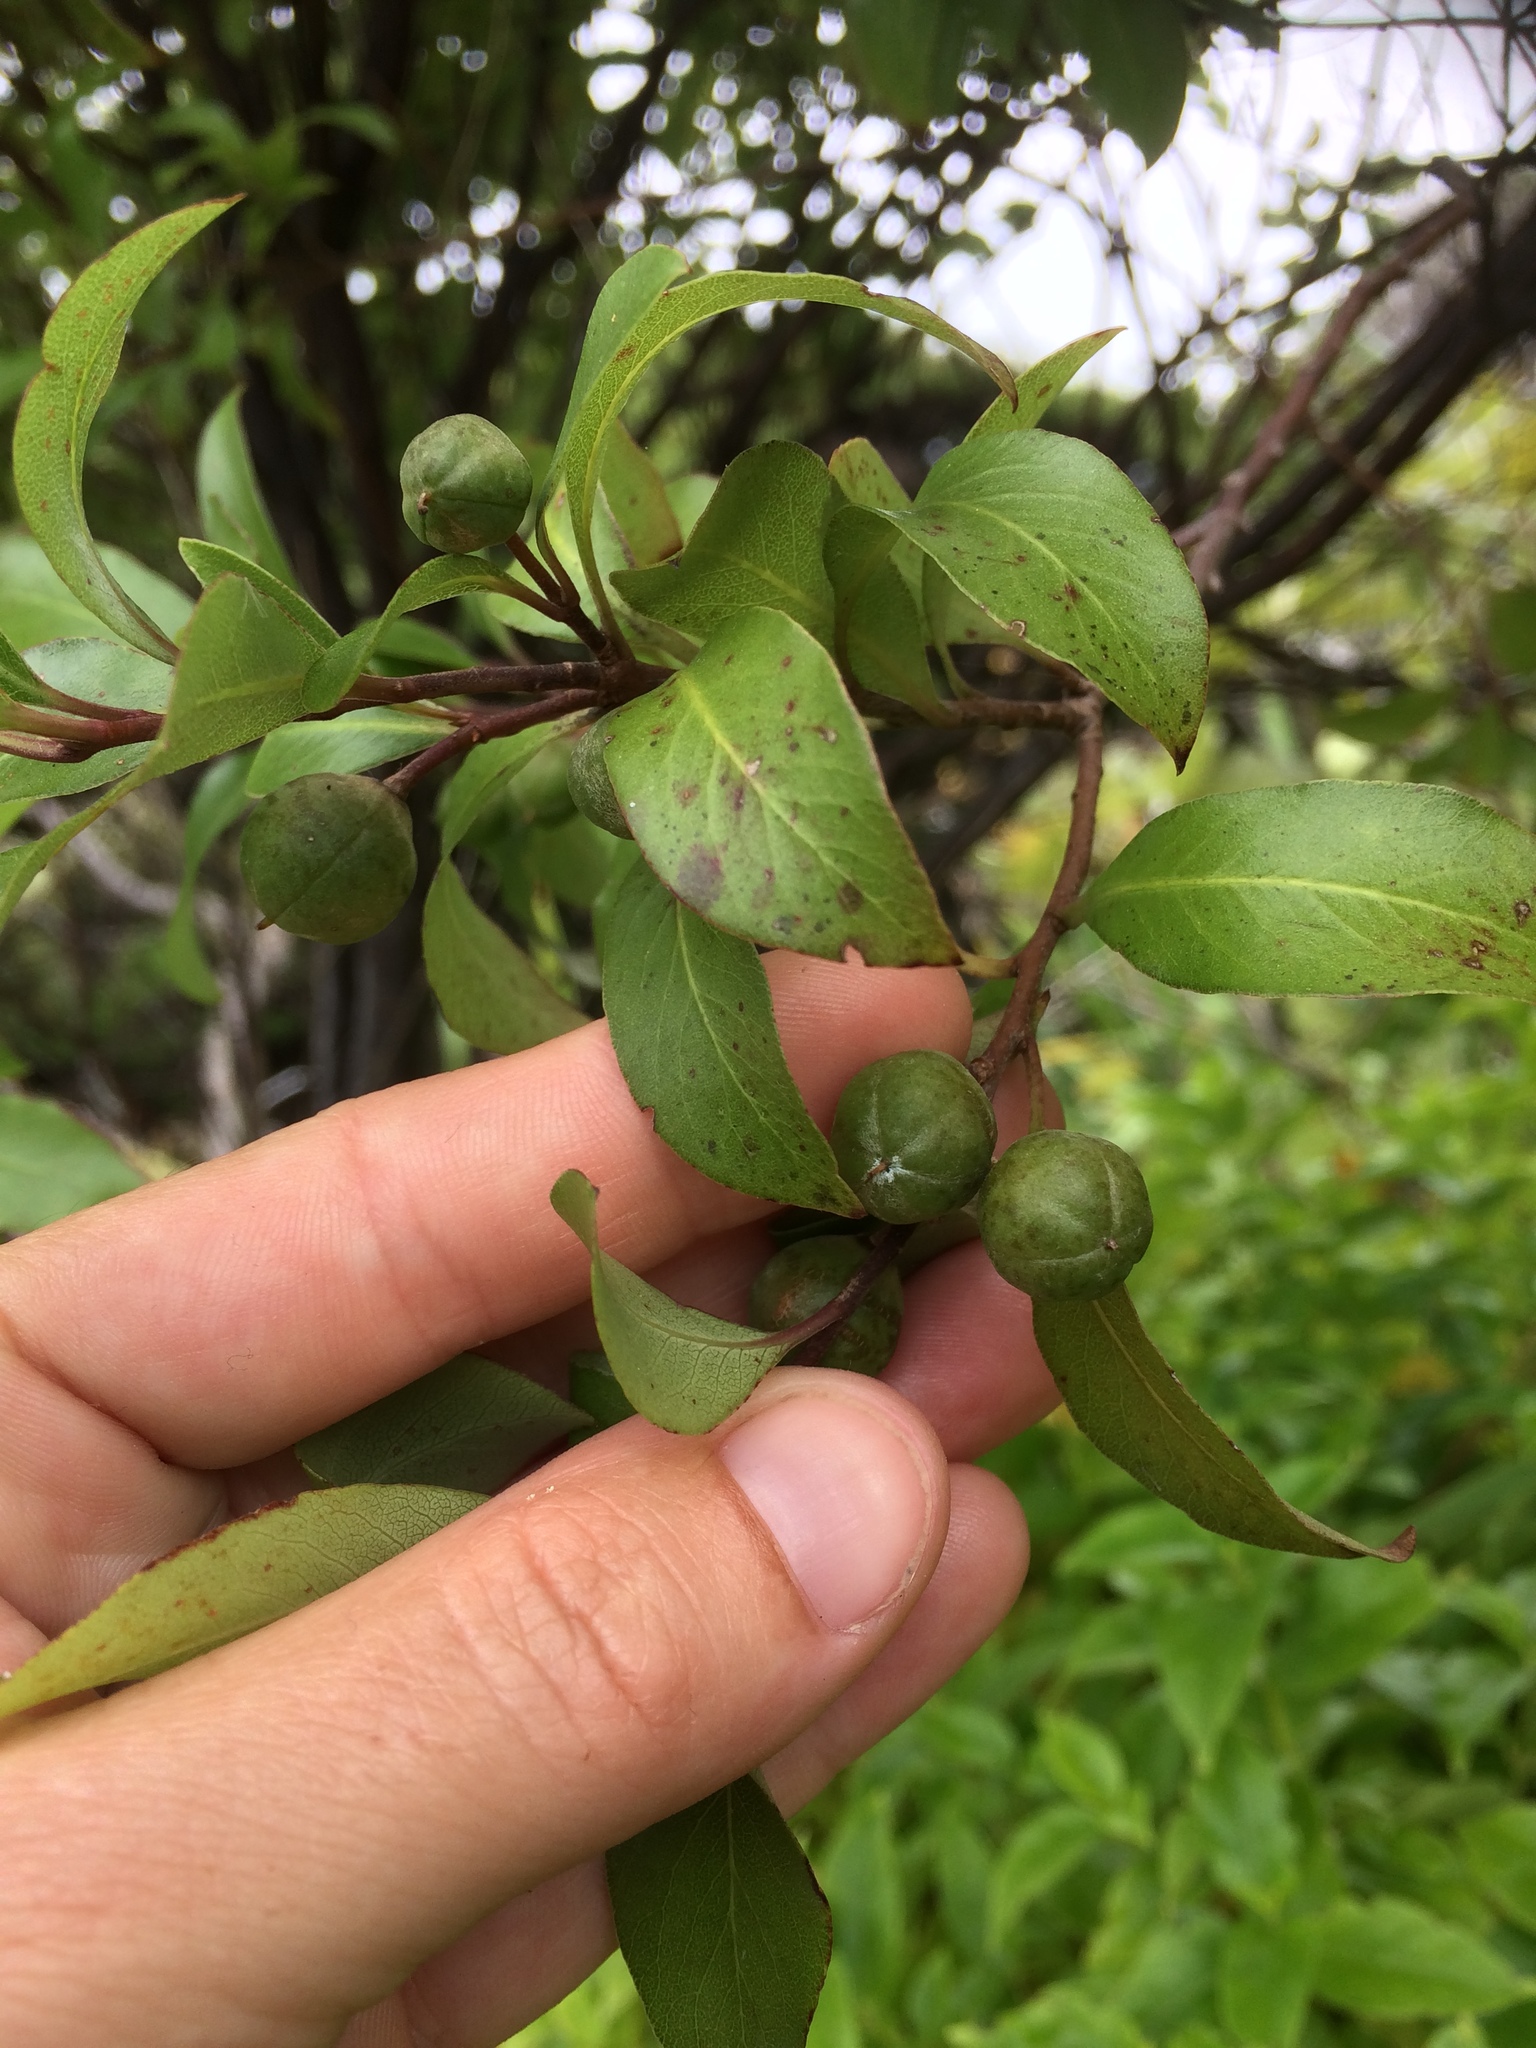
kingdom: Plantae
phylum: Tracheophyta
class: Magnoliopsida
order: Apiales
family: Pittosporaceae
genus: Pittosporum
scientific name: Pittosporum tenuifolium
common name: Kohuhu
